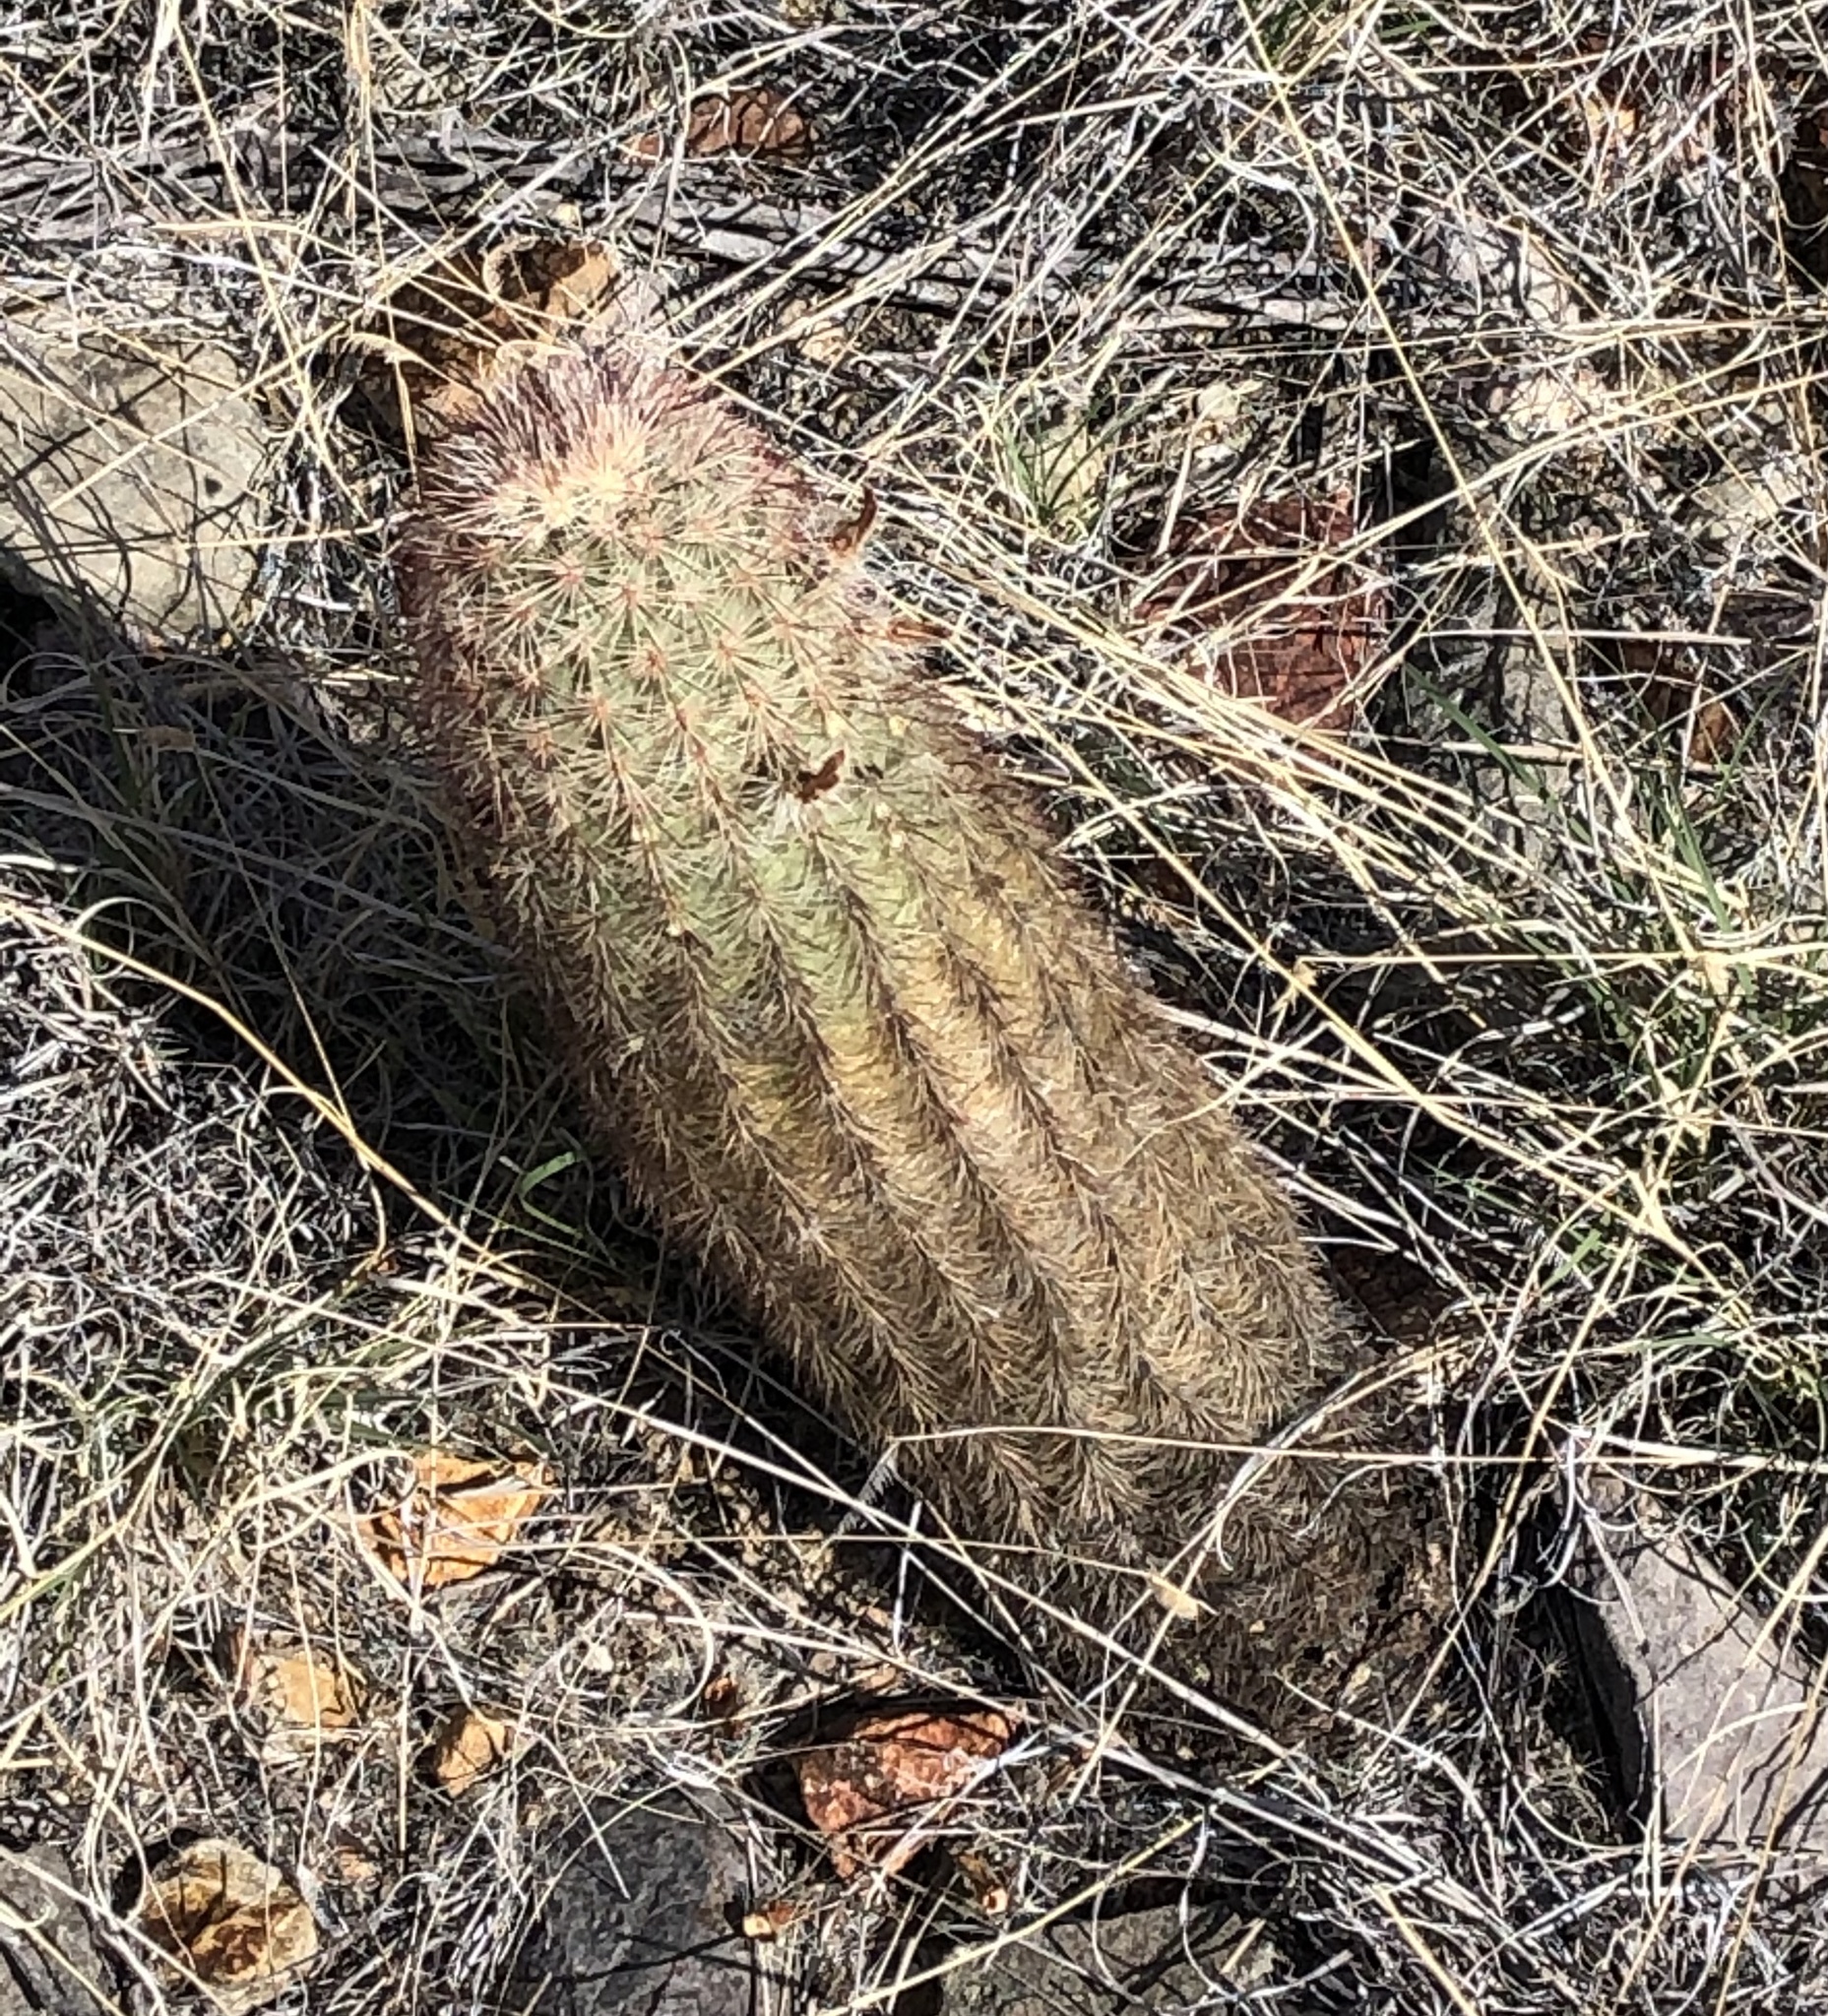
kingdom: Plantae
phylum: Tracheophyta
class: Magnoliopsida
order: Caryophyllales
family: Cactaceae
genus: Echinocereus
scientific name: Echinocereus russanthus
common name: Brownspine hedgehog cactus
